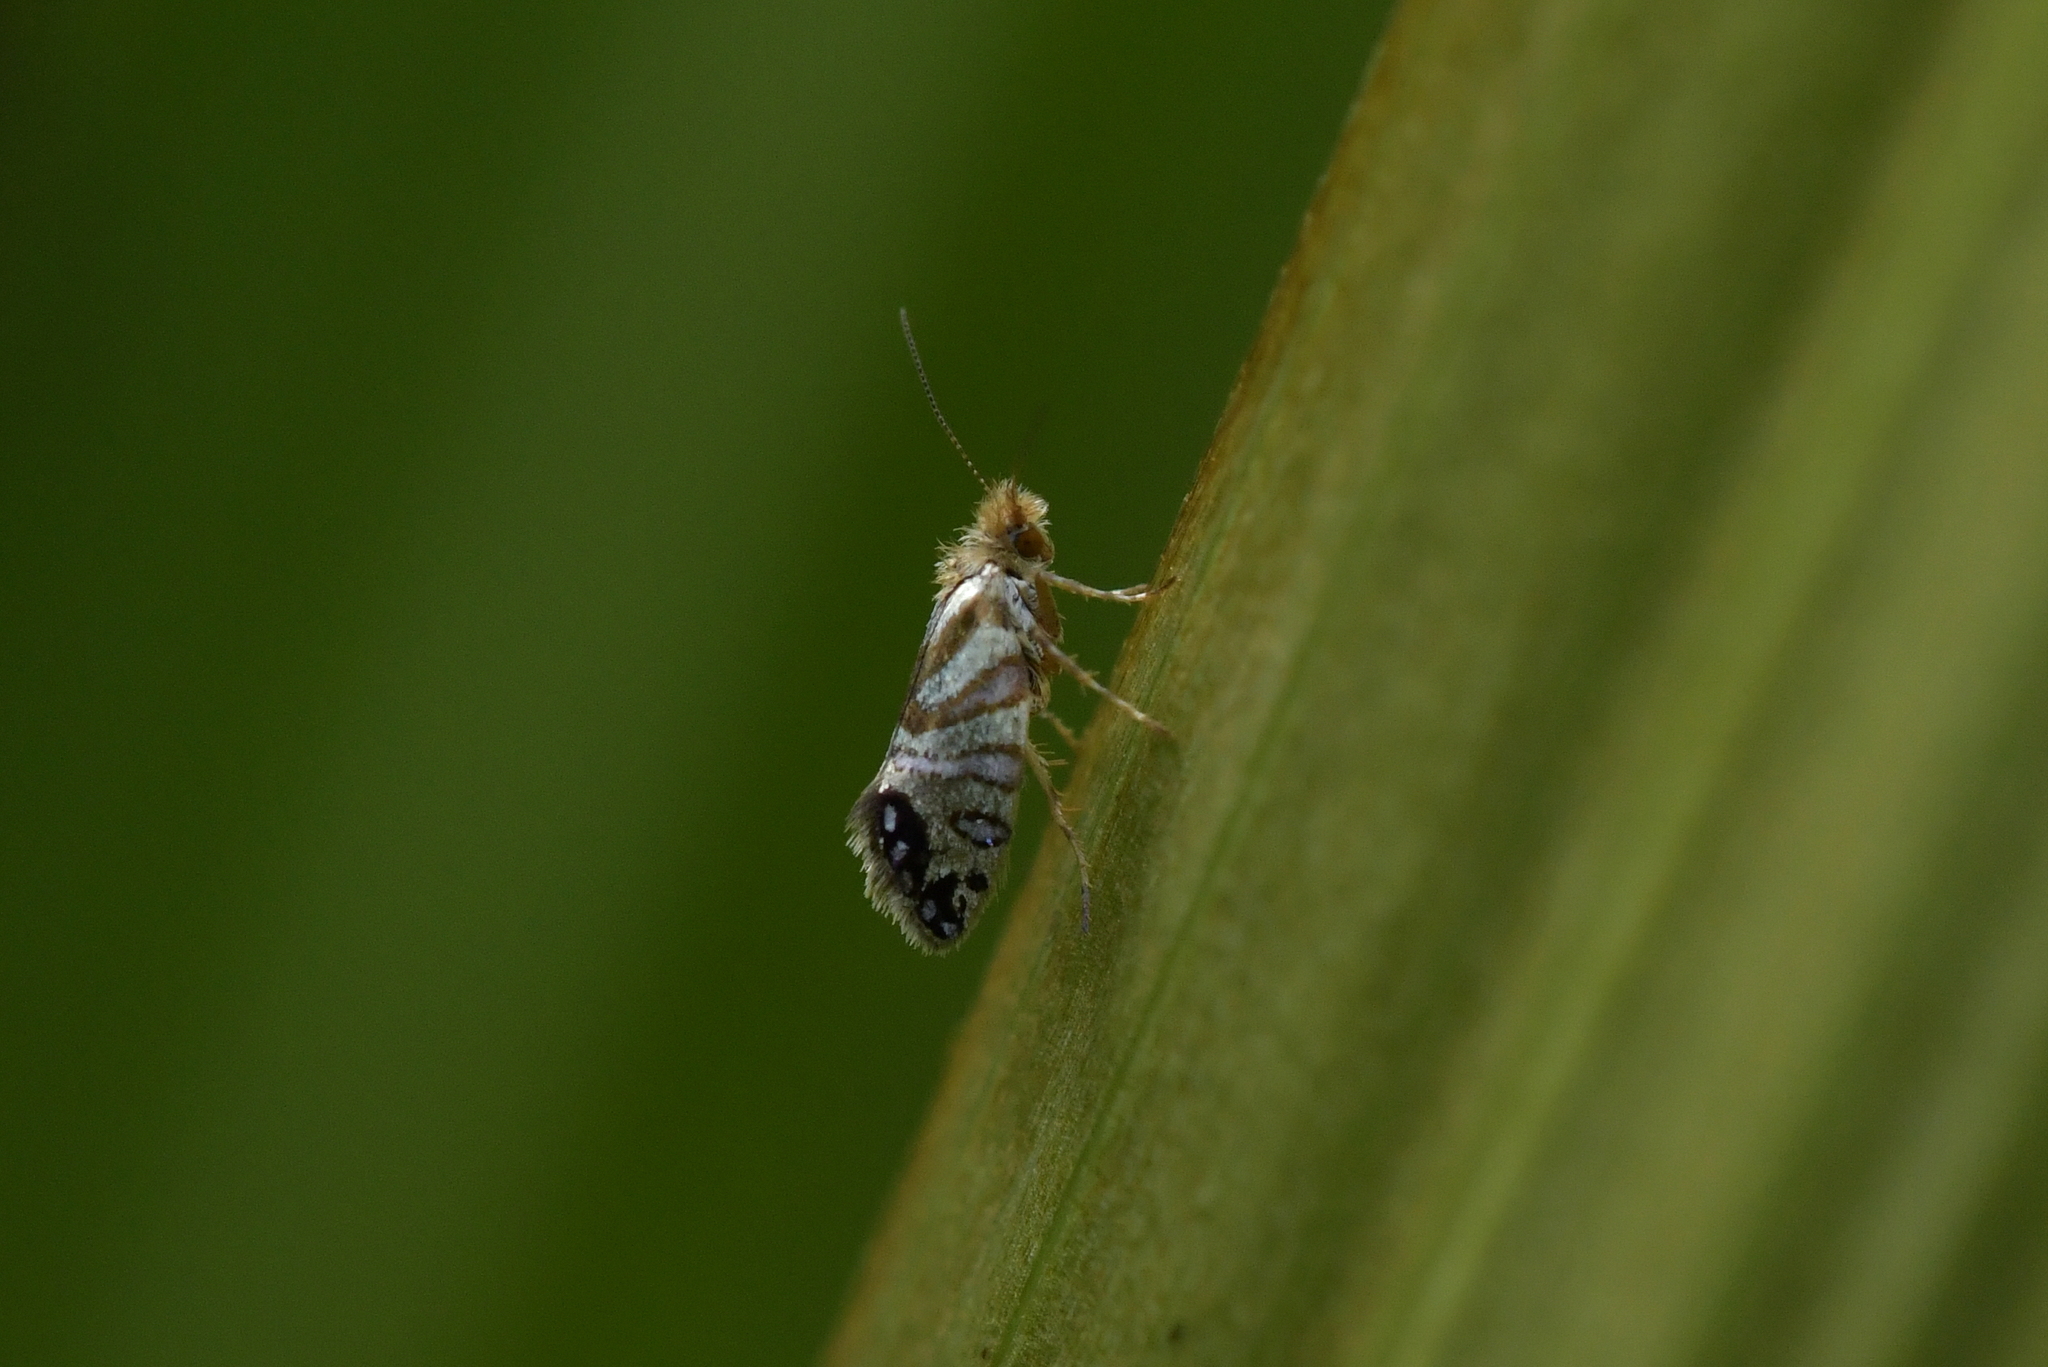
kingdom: Animalia
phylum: Arthropoda
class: Insecta
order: Lepidoptera
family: Micropterigidae
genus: Sabatinca
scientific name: Sabatinca doroxena
